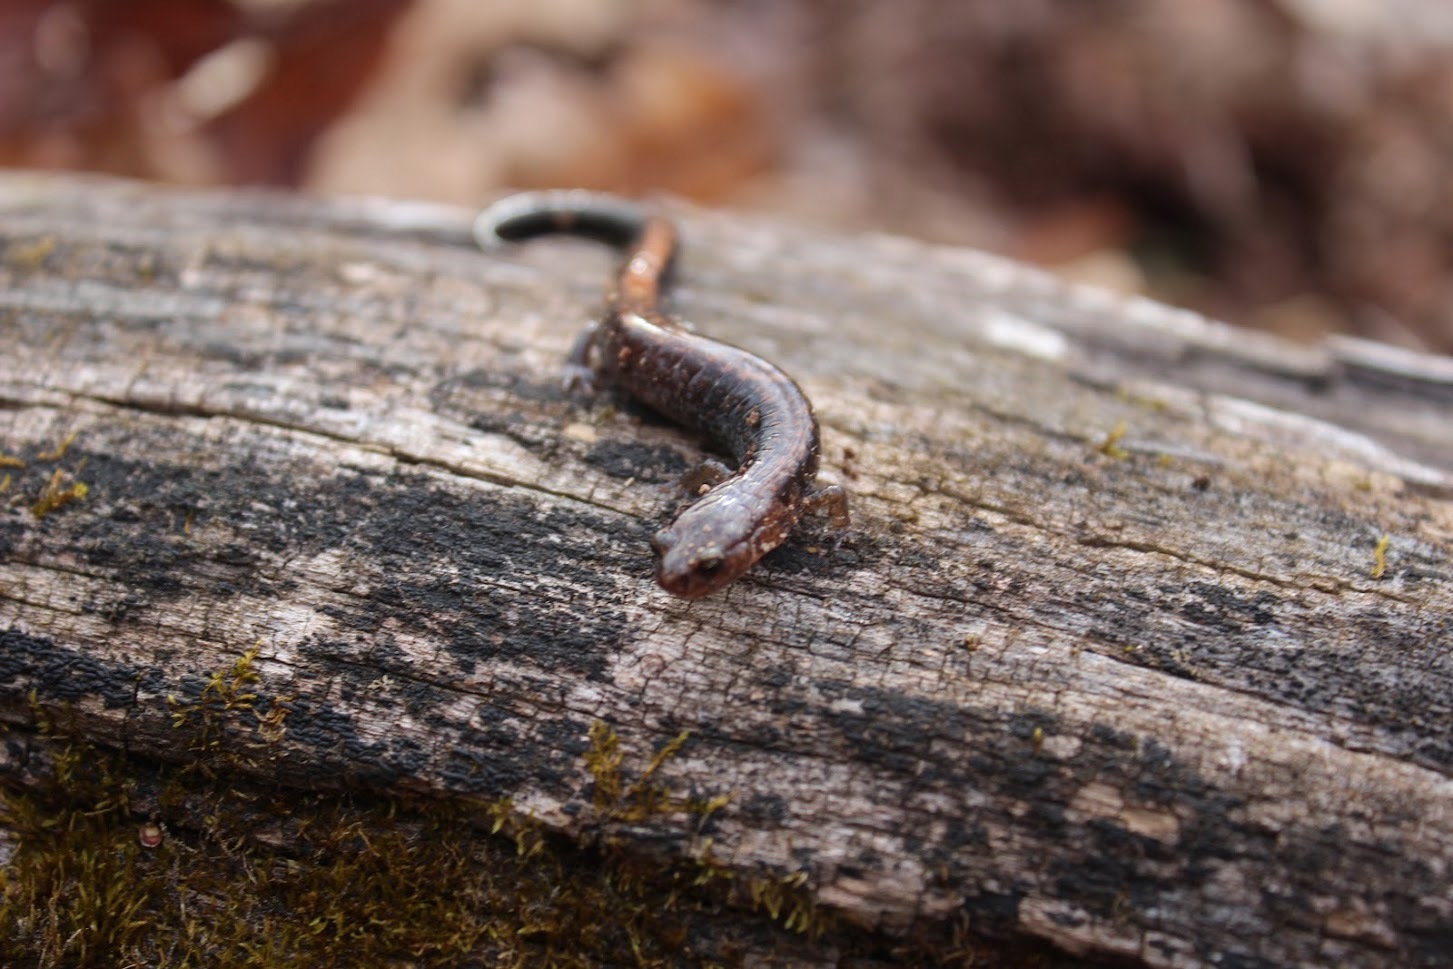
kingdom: Animalia
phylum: Chordata
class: Amphibia
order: Caudata
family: Plethodontidae
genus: Plethodon
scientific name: Plethodon cinereus
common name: Redback salamander
